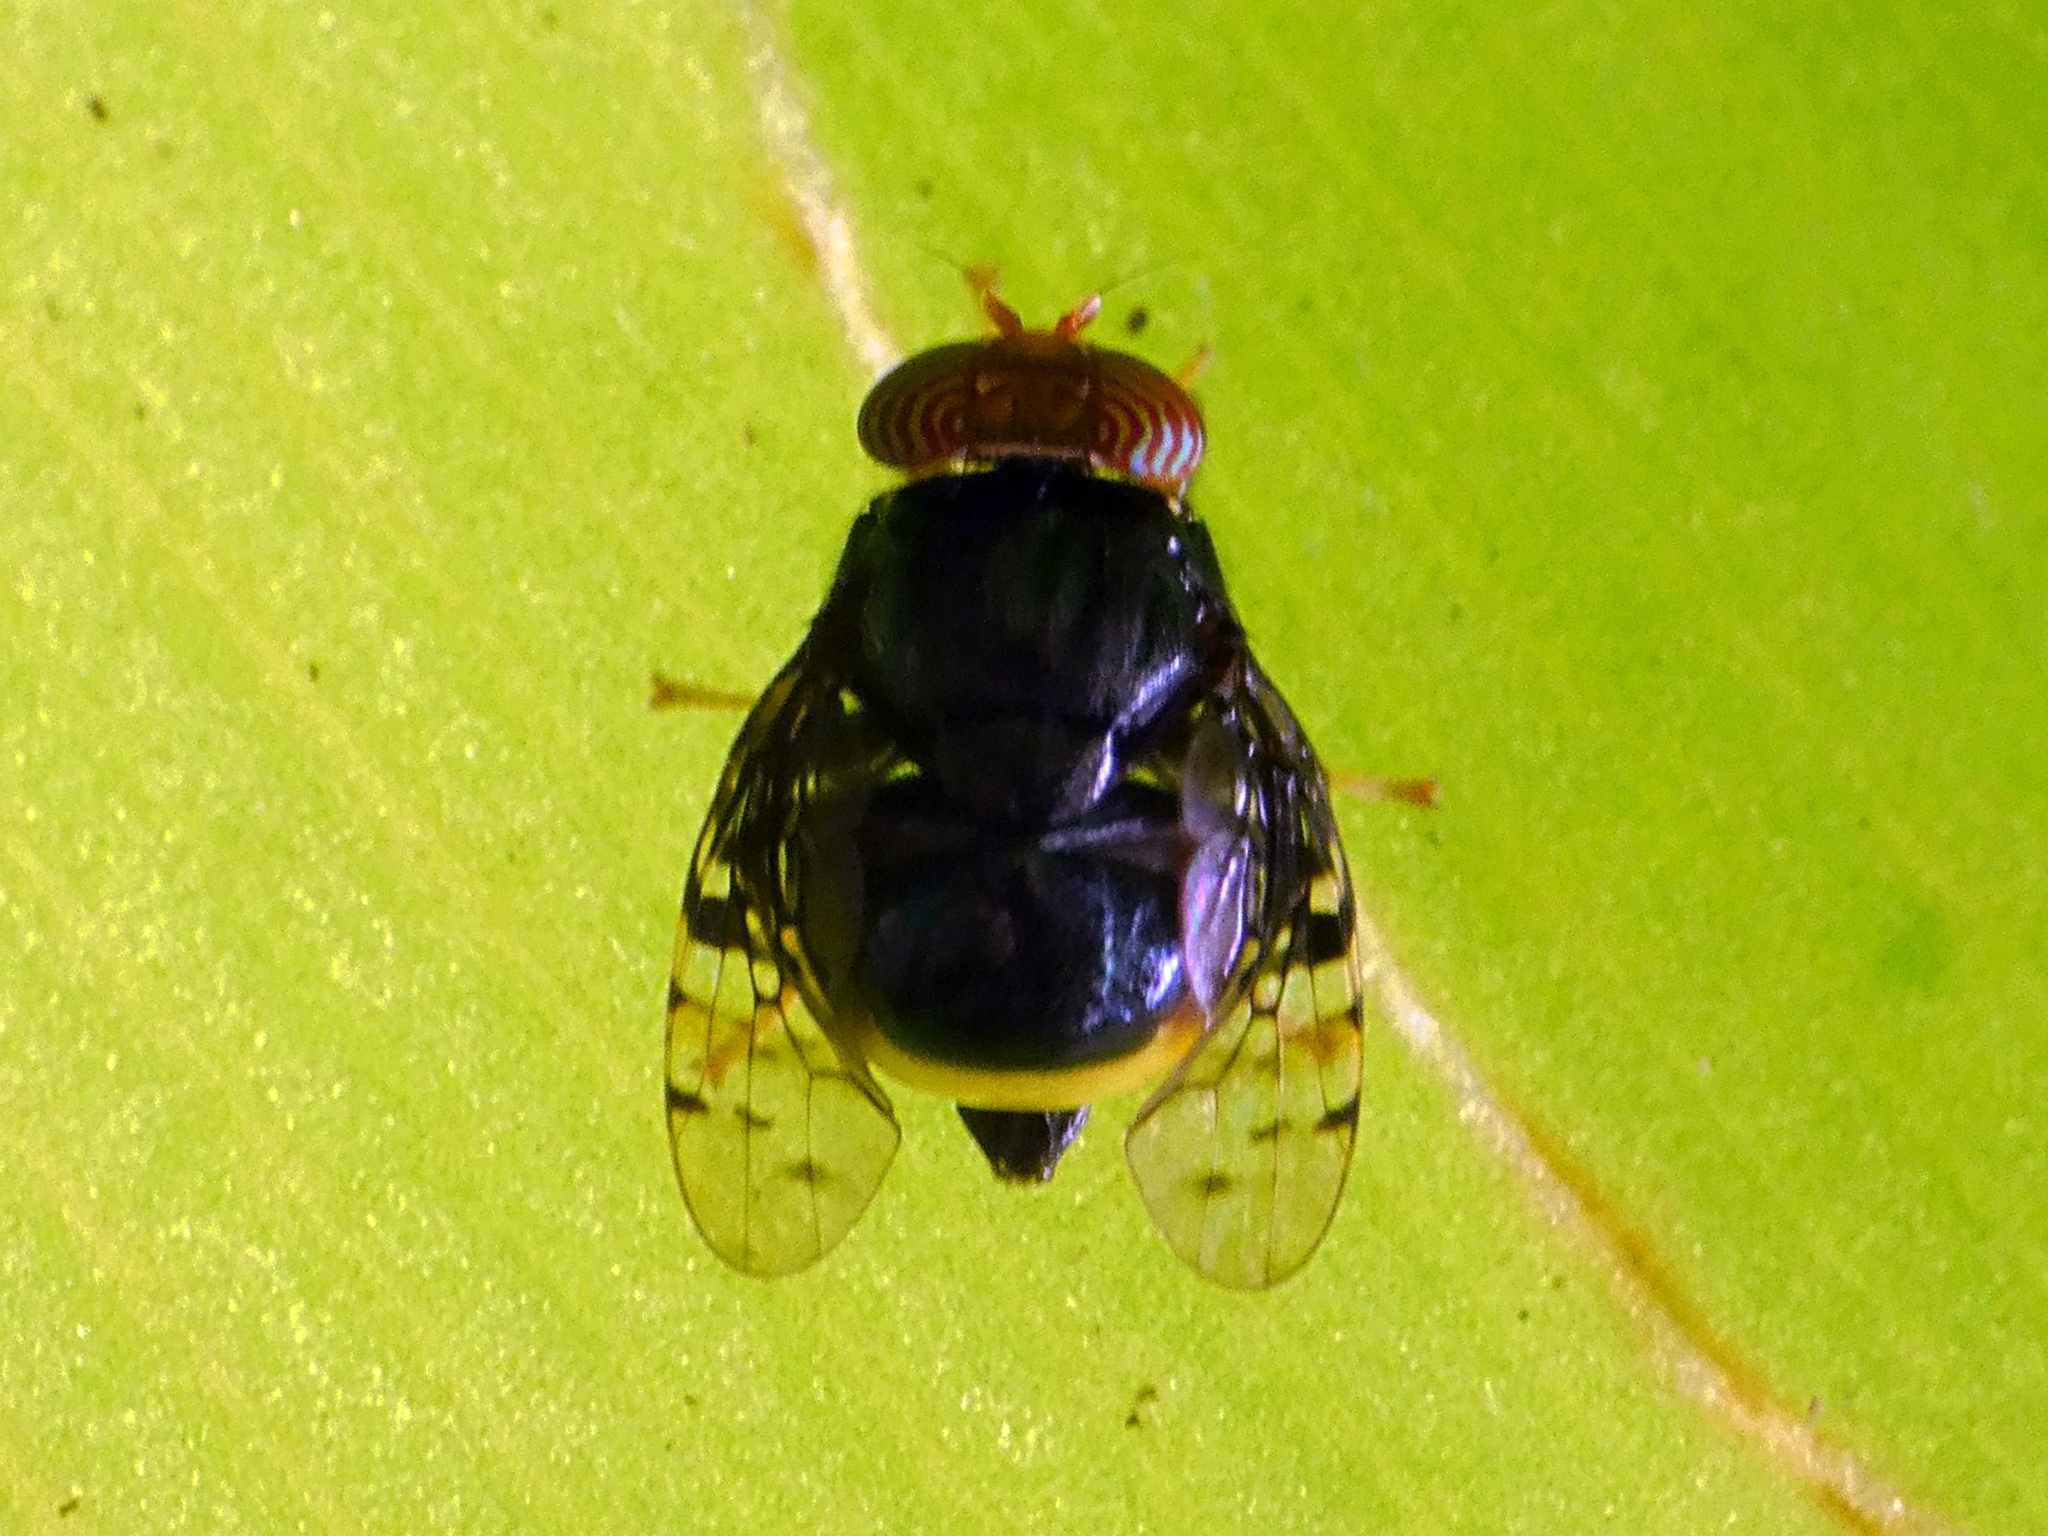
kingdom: Animalia
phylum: Arthropoda
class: Insecta
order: Diptera
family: Platystomatidae
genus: Naupoda
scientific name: Naupoda regina
